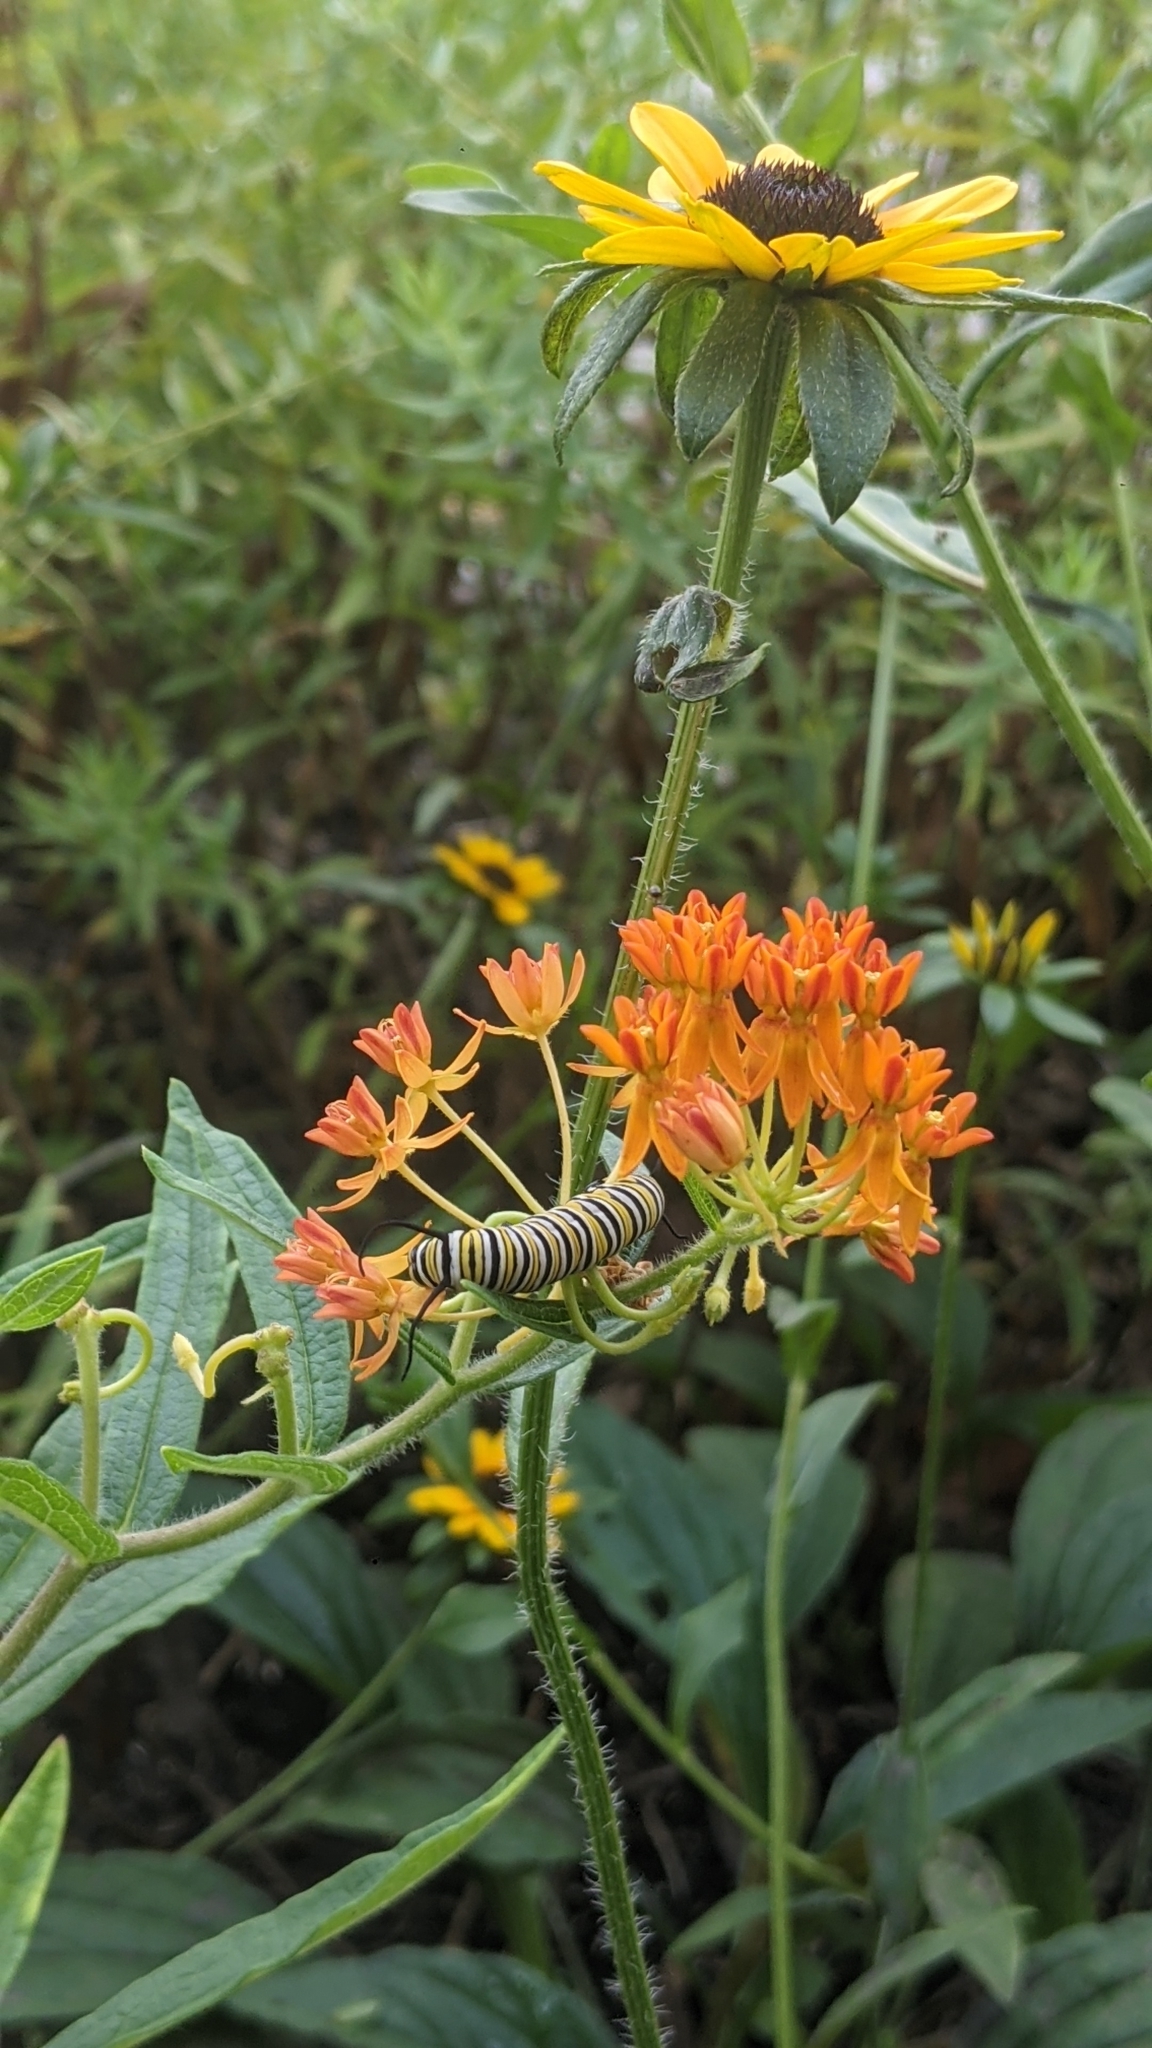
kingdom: Animalia
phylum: Arthropoda
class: Insecta
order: Lepidoptera
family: Nymphalidae
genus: Danaus
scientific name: Danaus plexippus
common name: Monarch
